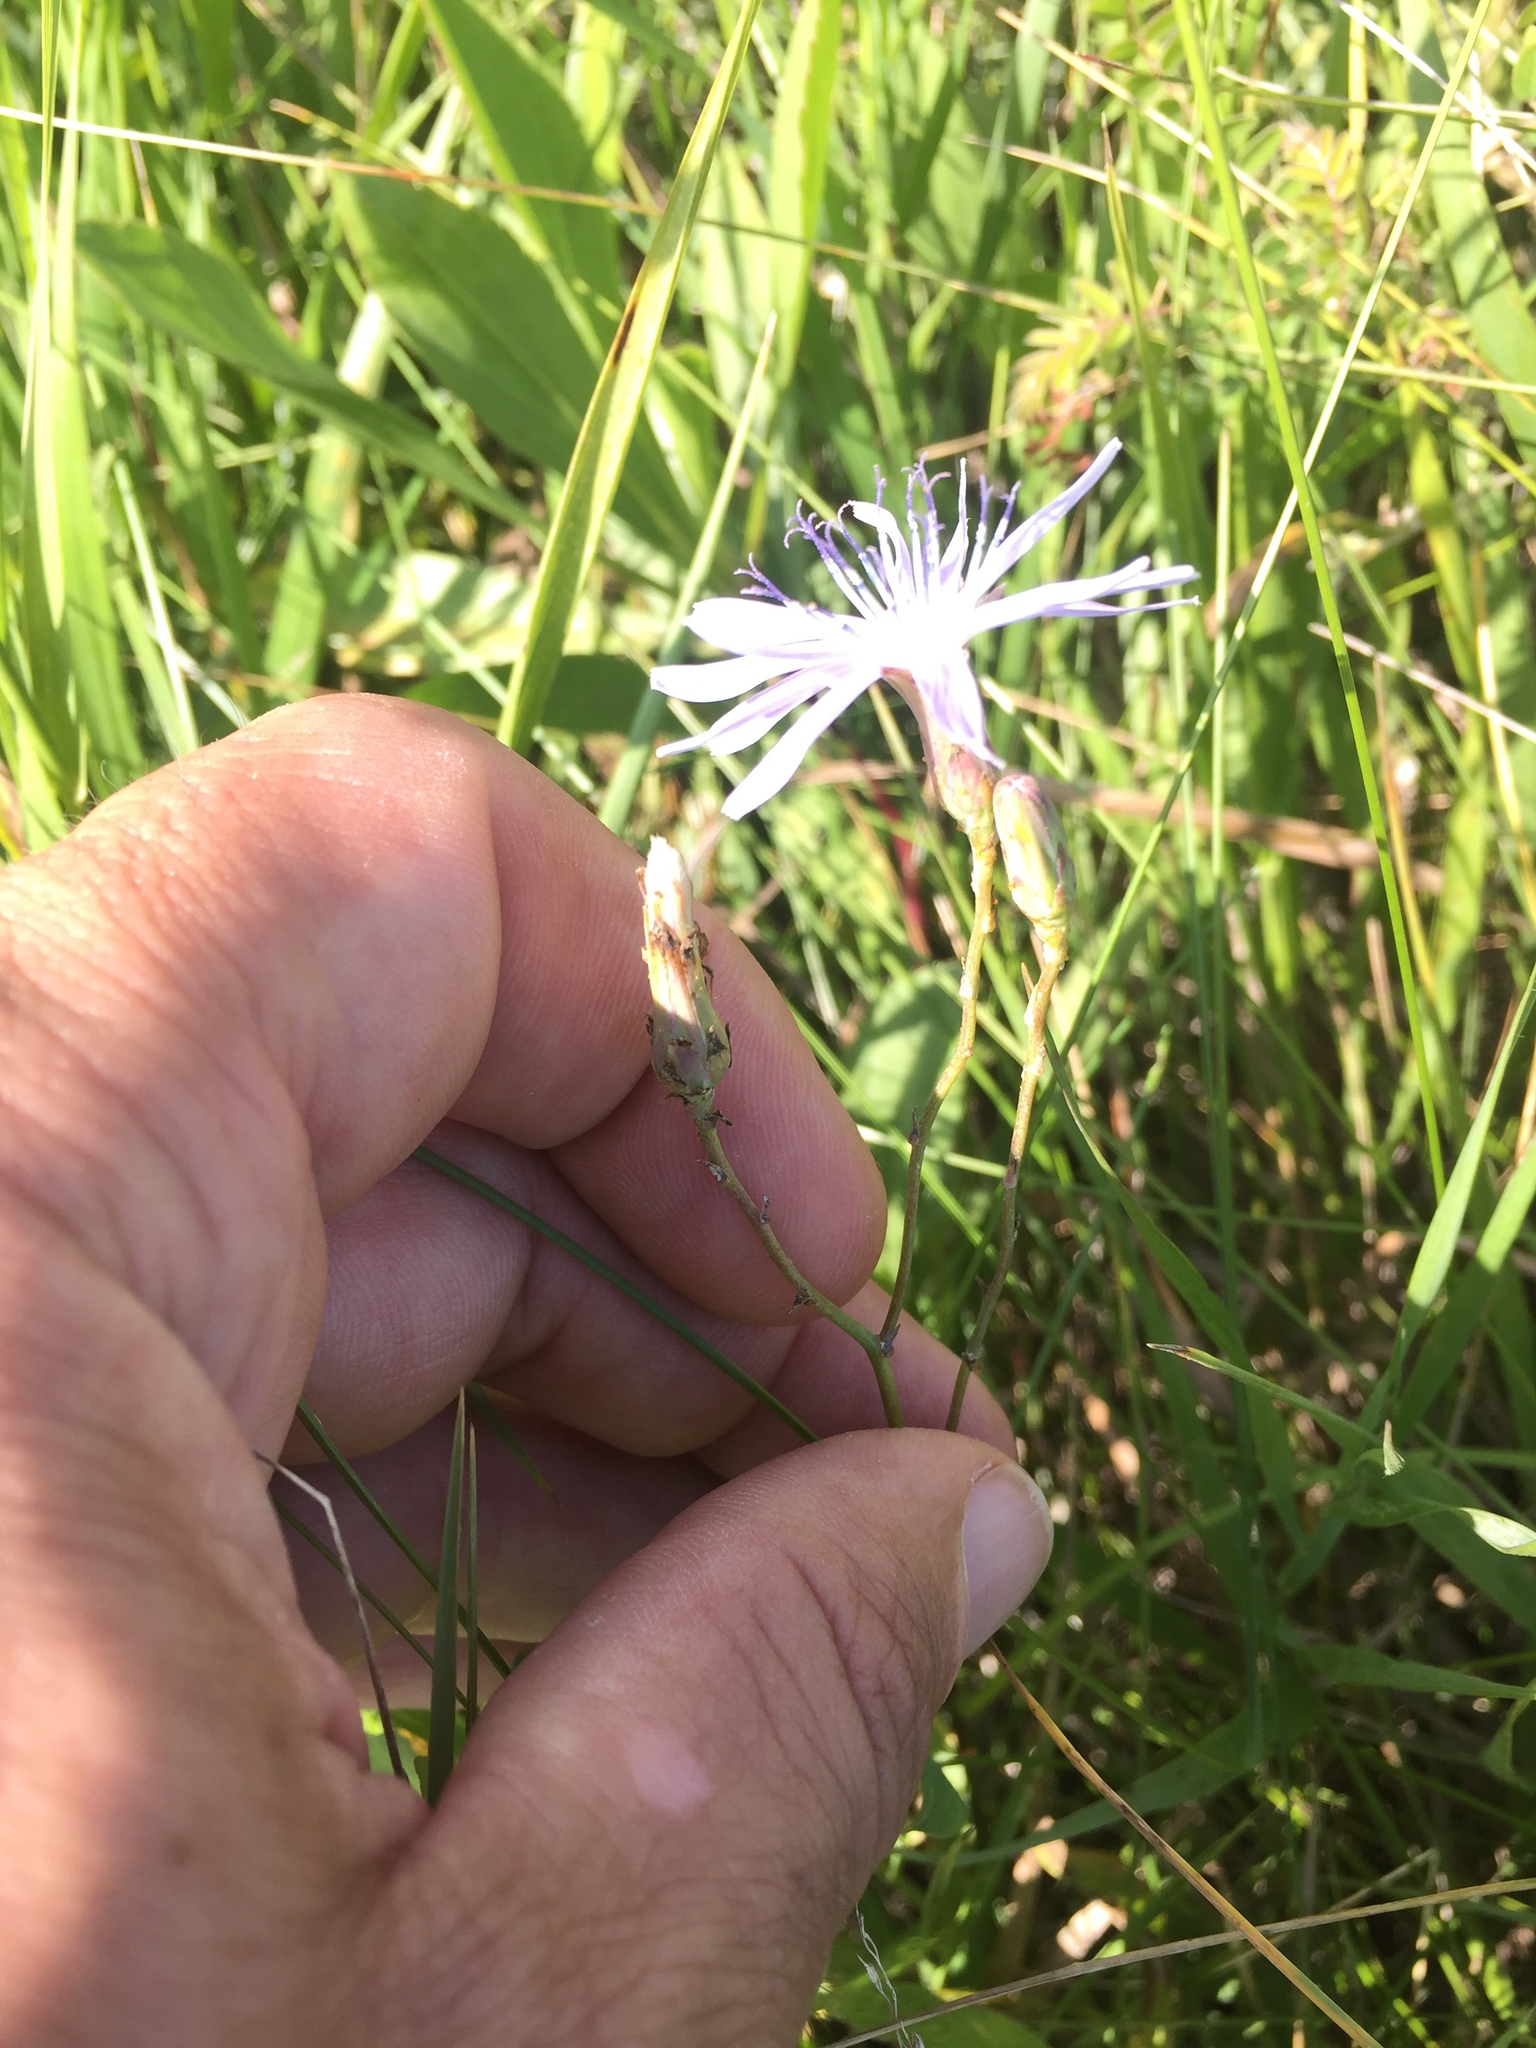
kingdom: Plantae
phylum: Tracheophyta
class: Magnoliopsida
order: Asterales
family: Asteraceae
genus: Lactuca
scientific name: Lactuca tatarica
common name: Blue lettuce
